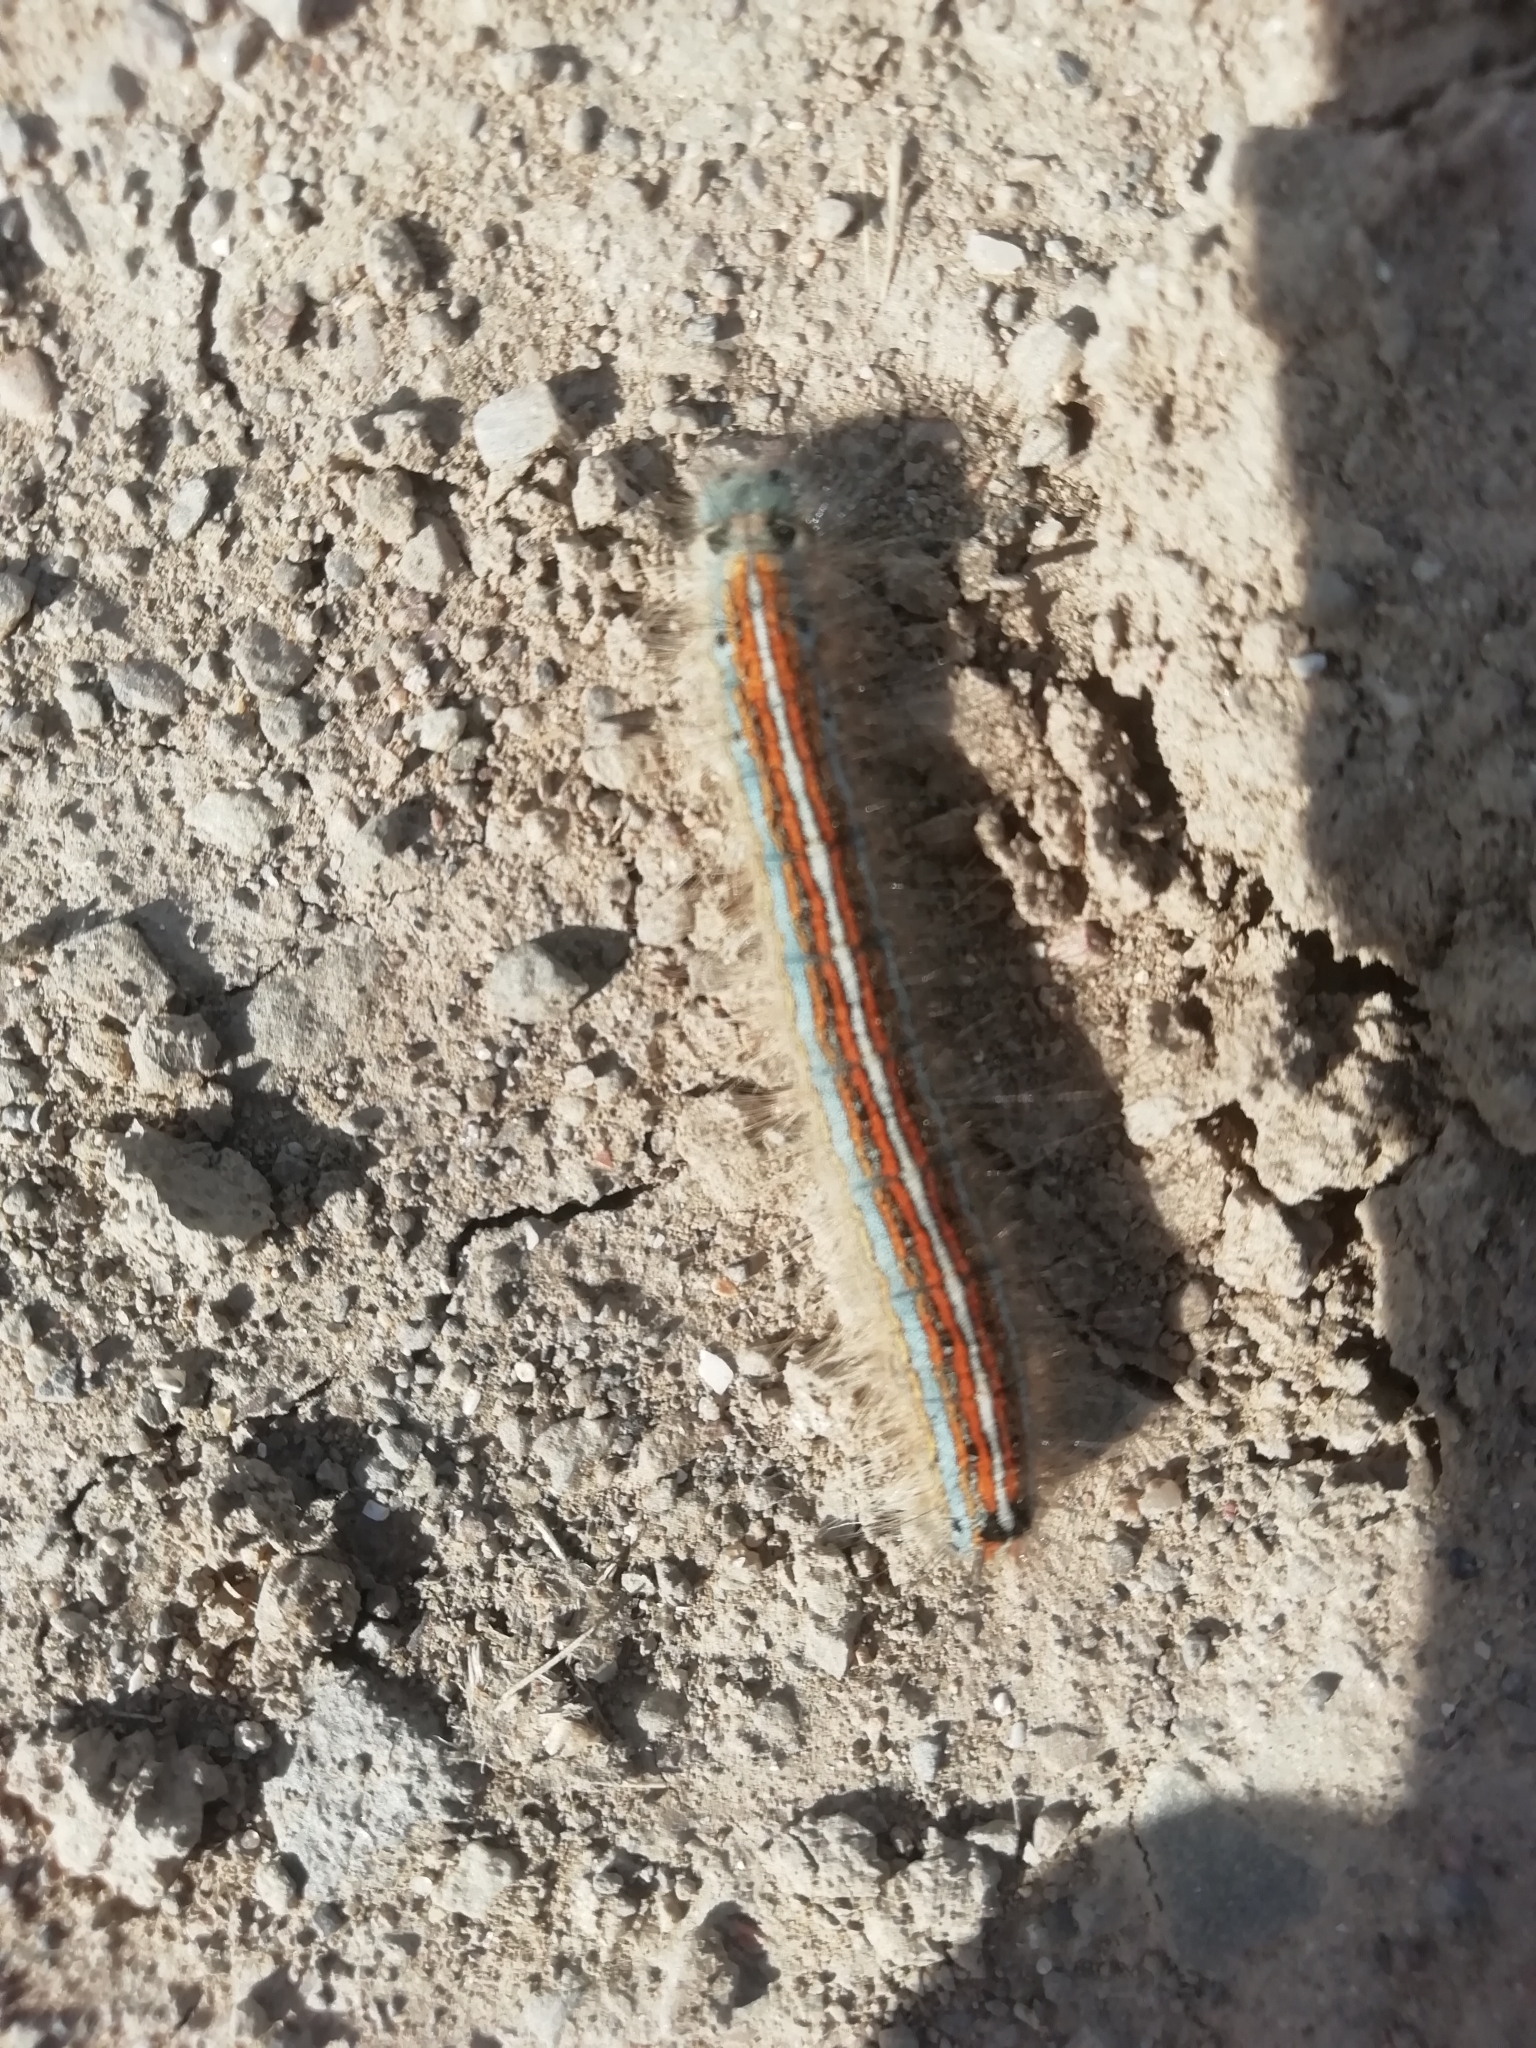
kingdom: Animalia
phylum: Arthropoda
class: Insecta
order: Lepidoptera
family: Lasiocampidae
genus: Malacosoma
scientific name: Malacosoma neustria
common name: The lackey
